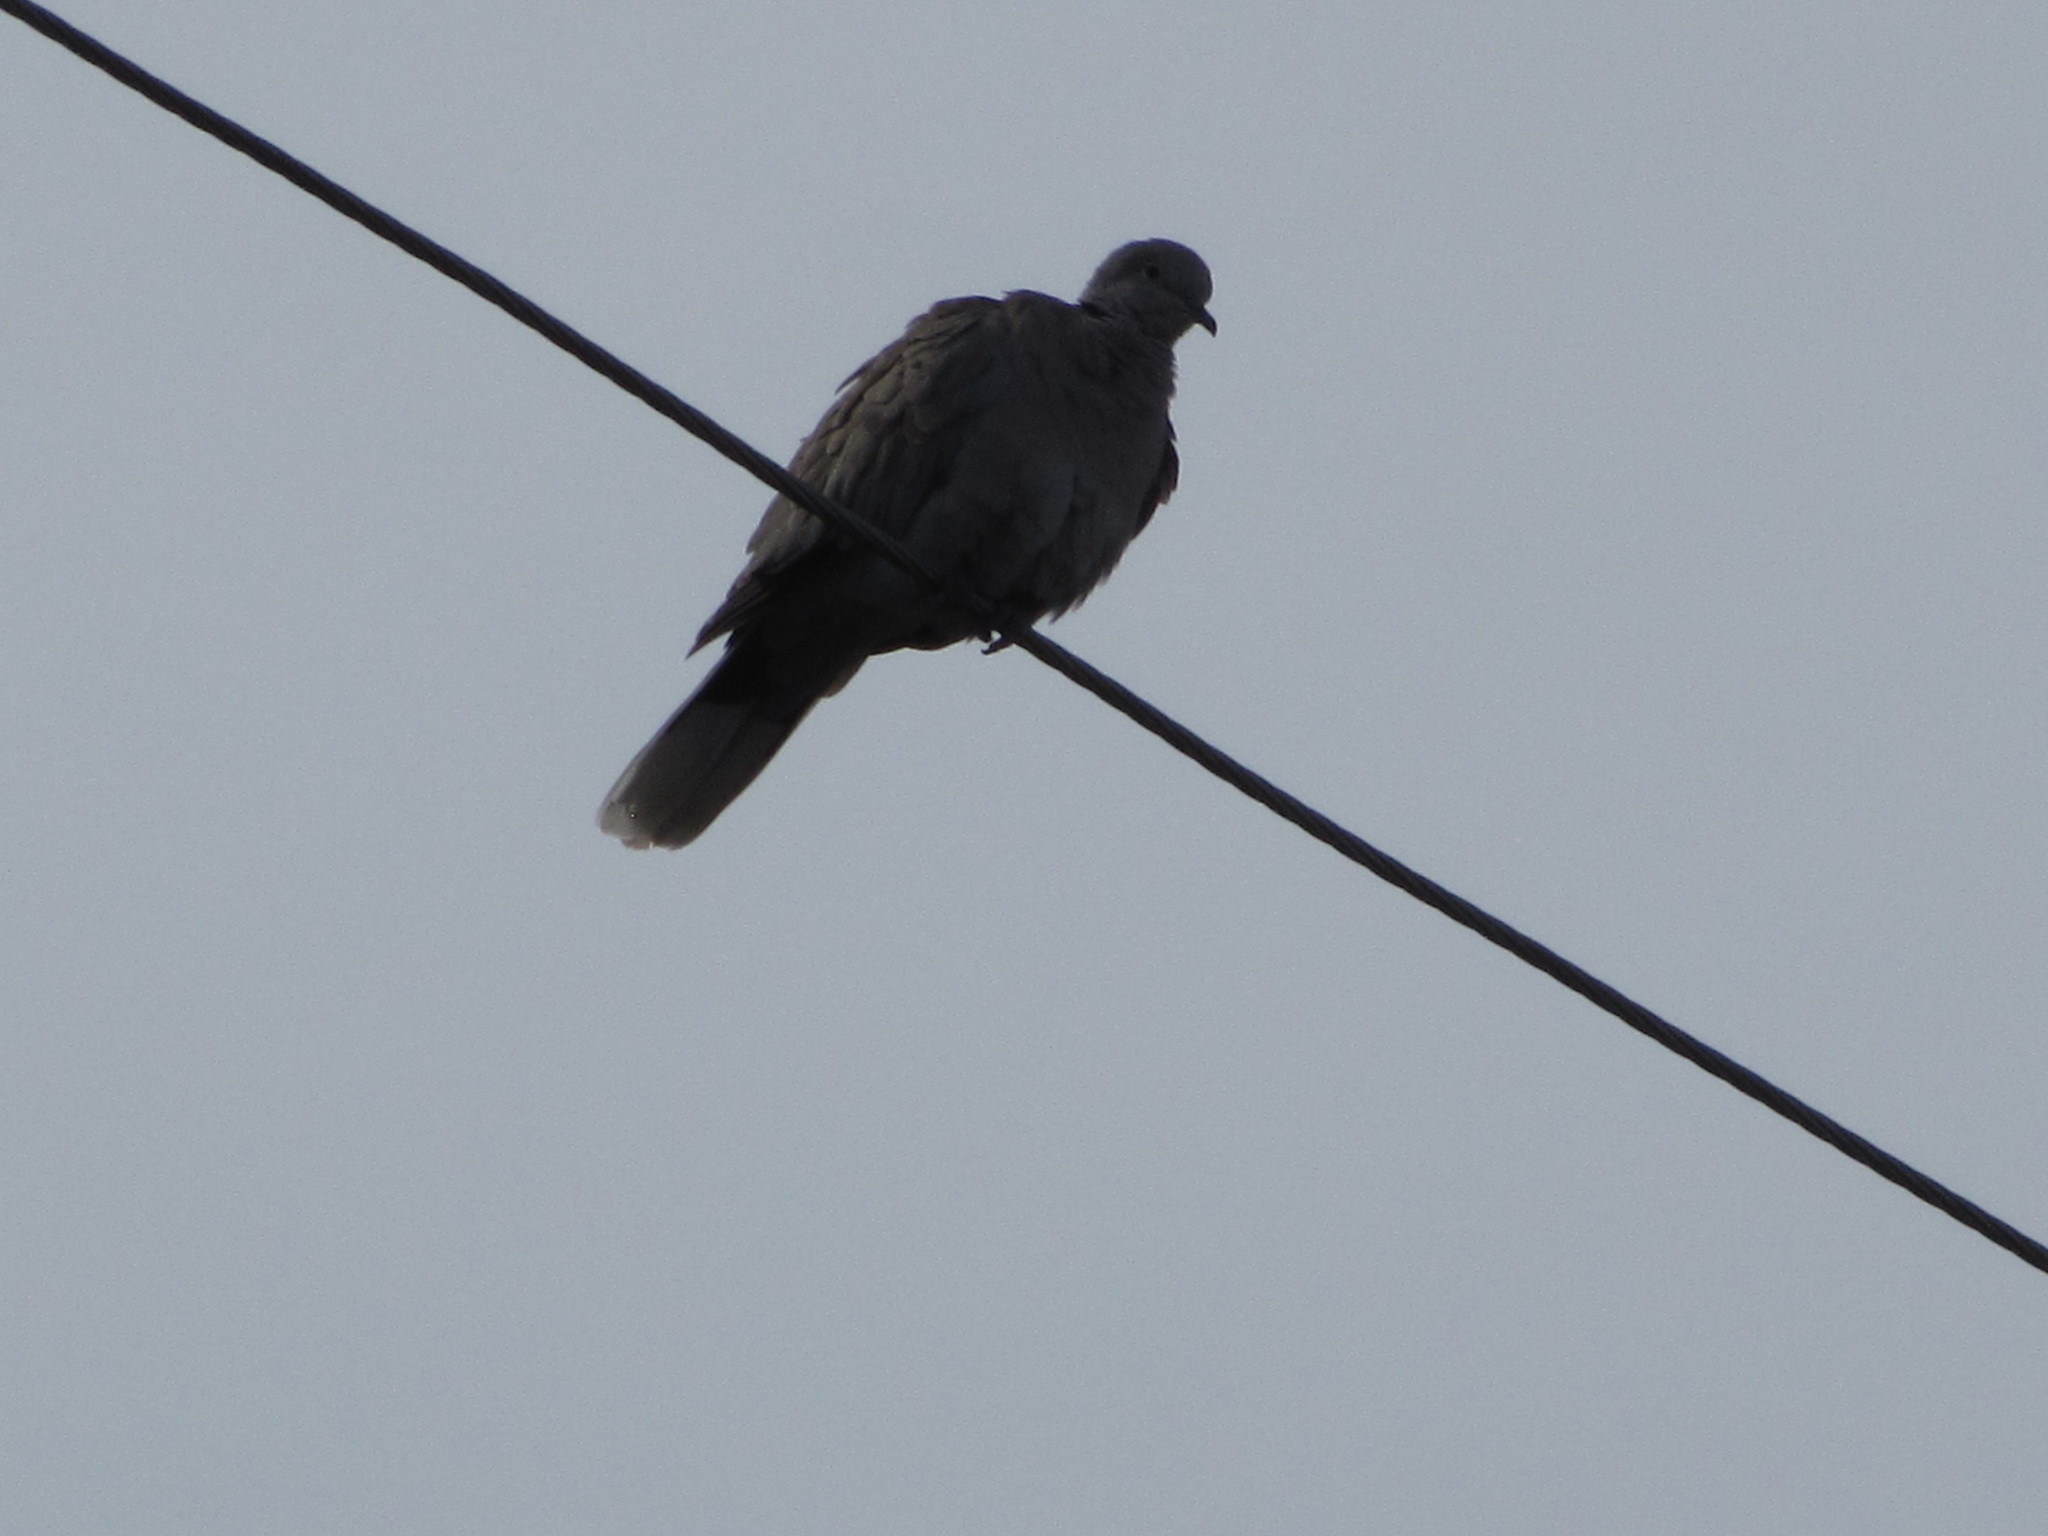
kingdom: Animalia
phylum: Chordata
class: Aves
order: Columbiformes
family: Columbidae
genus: Streptopelia
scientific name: Streptopelia decaocto
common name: Eurasian collared dove
